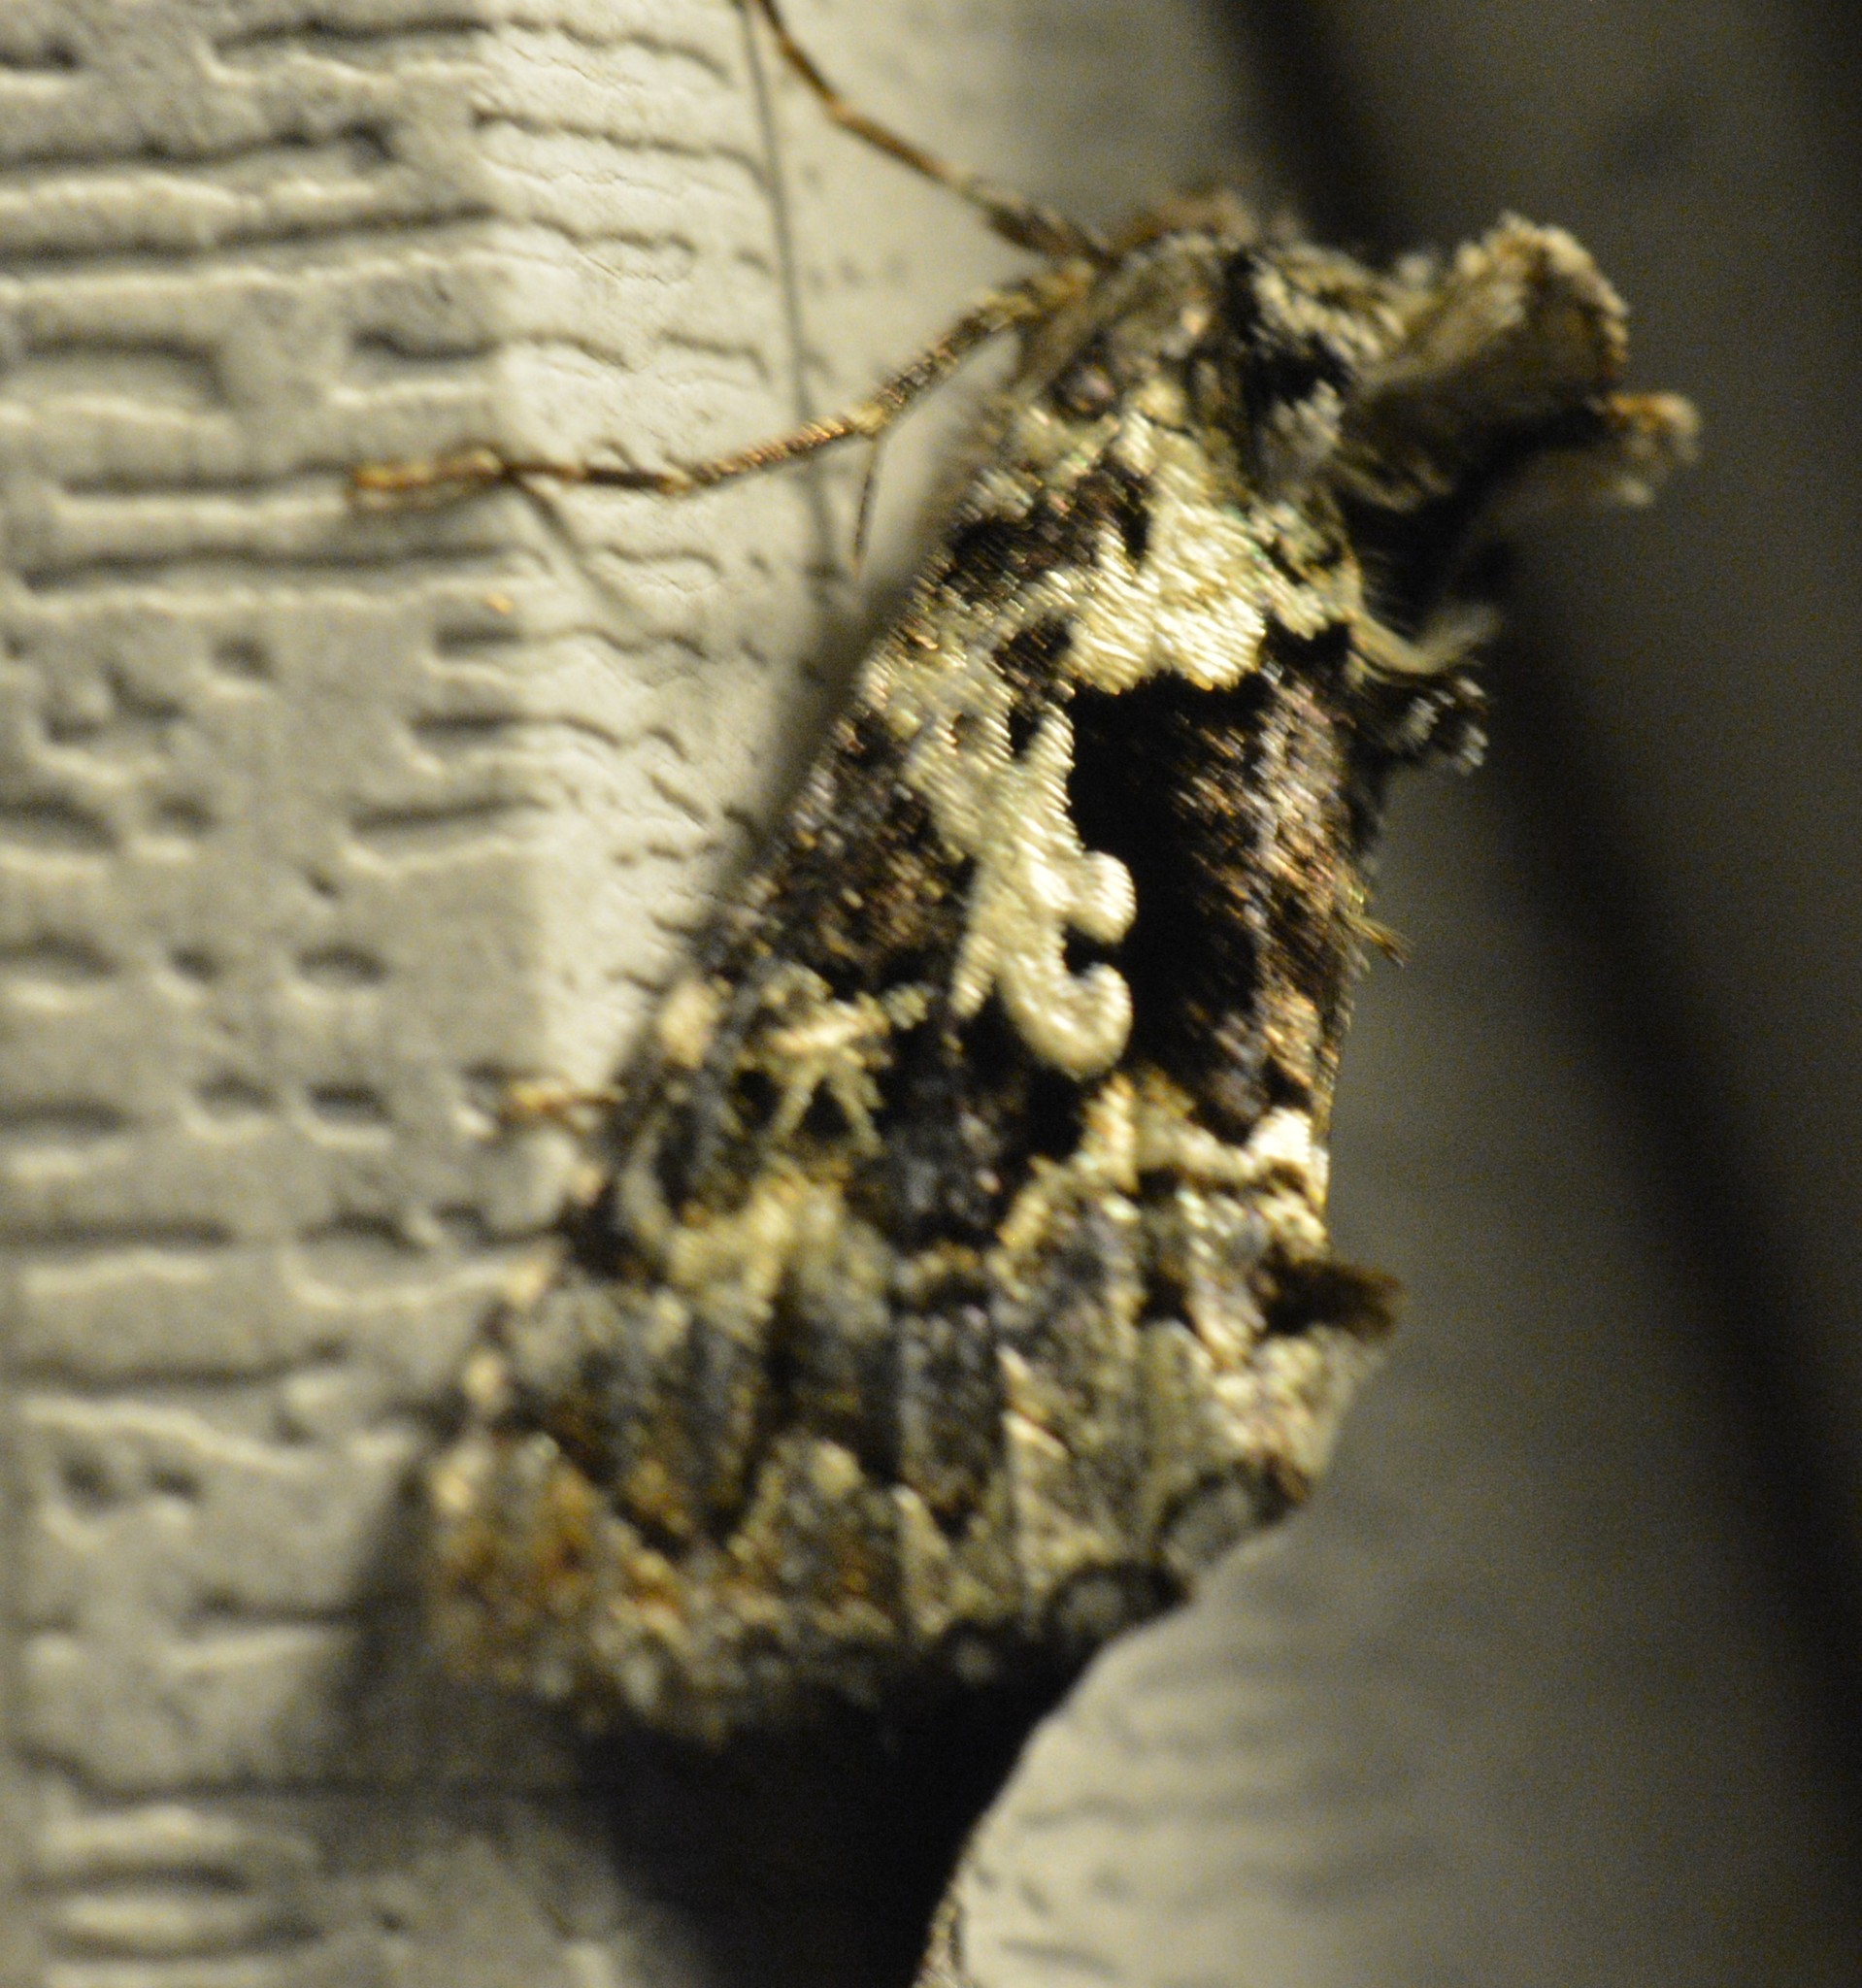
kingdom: Animalia
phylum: Arthropoda
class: Insecta
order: Lepidoptera
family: Noctuidae
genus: Syngrapha
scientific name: Syngrapha rectangula
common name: Angulated cutworm
